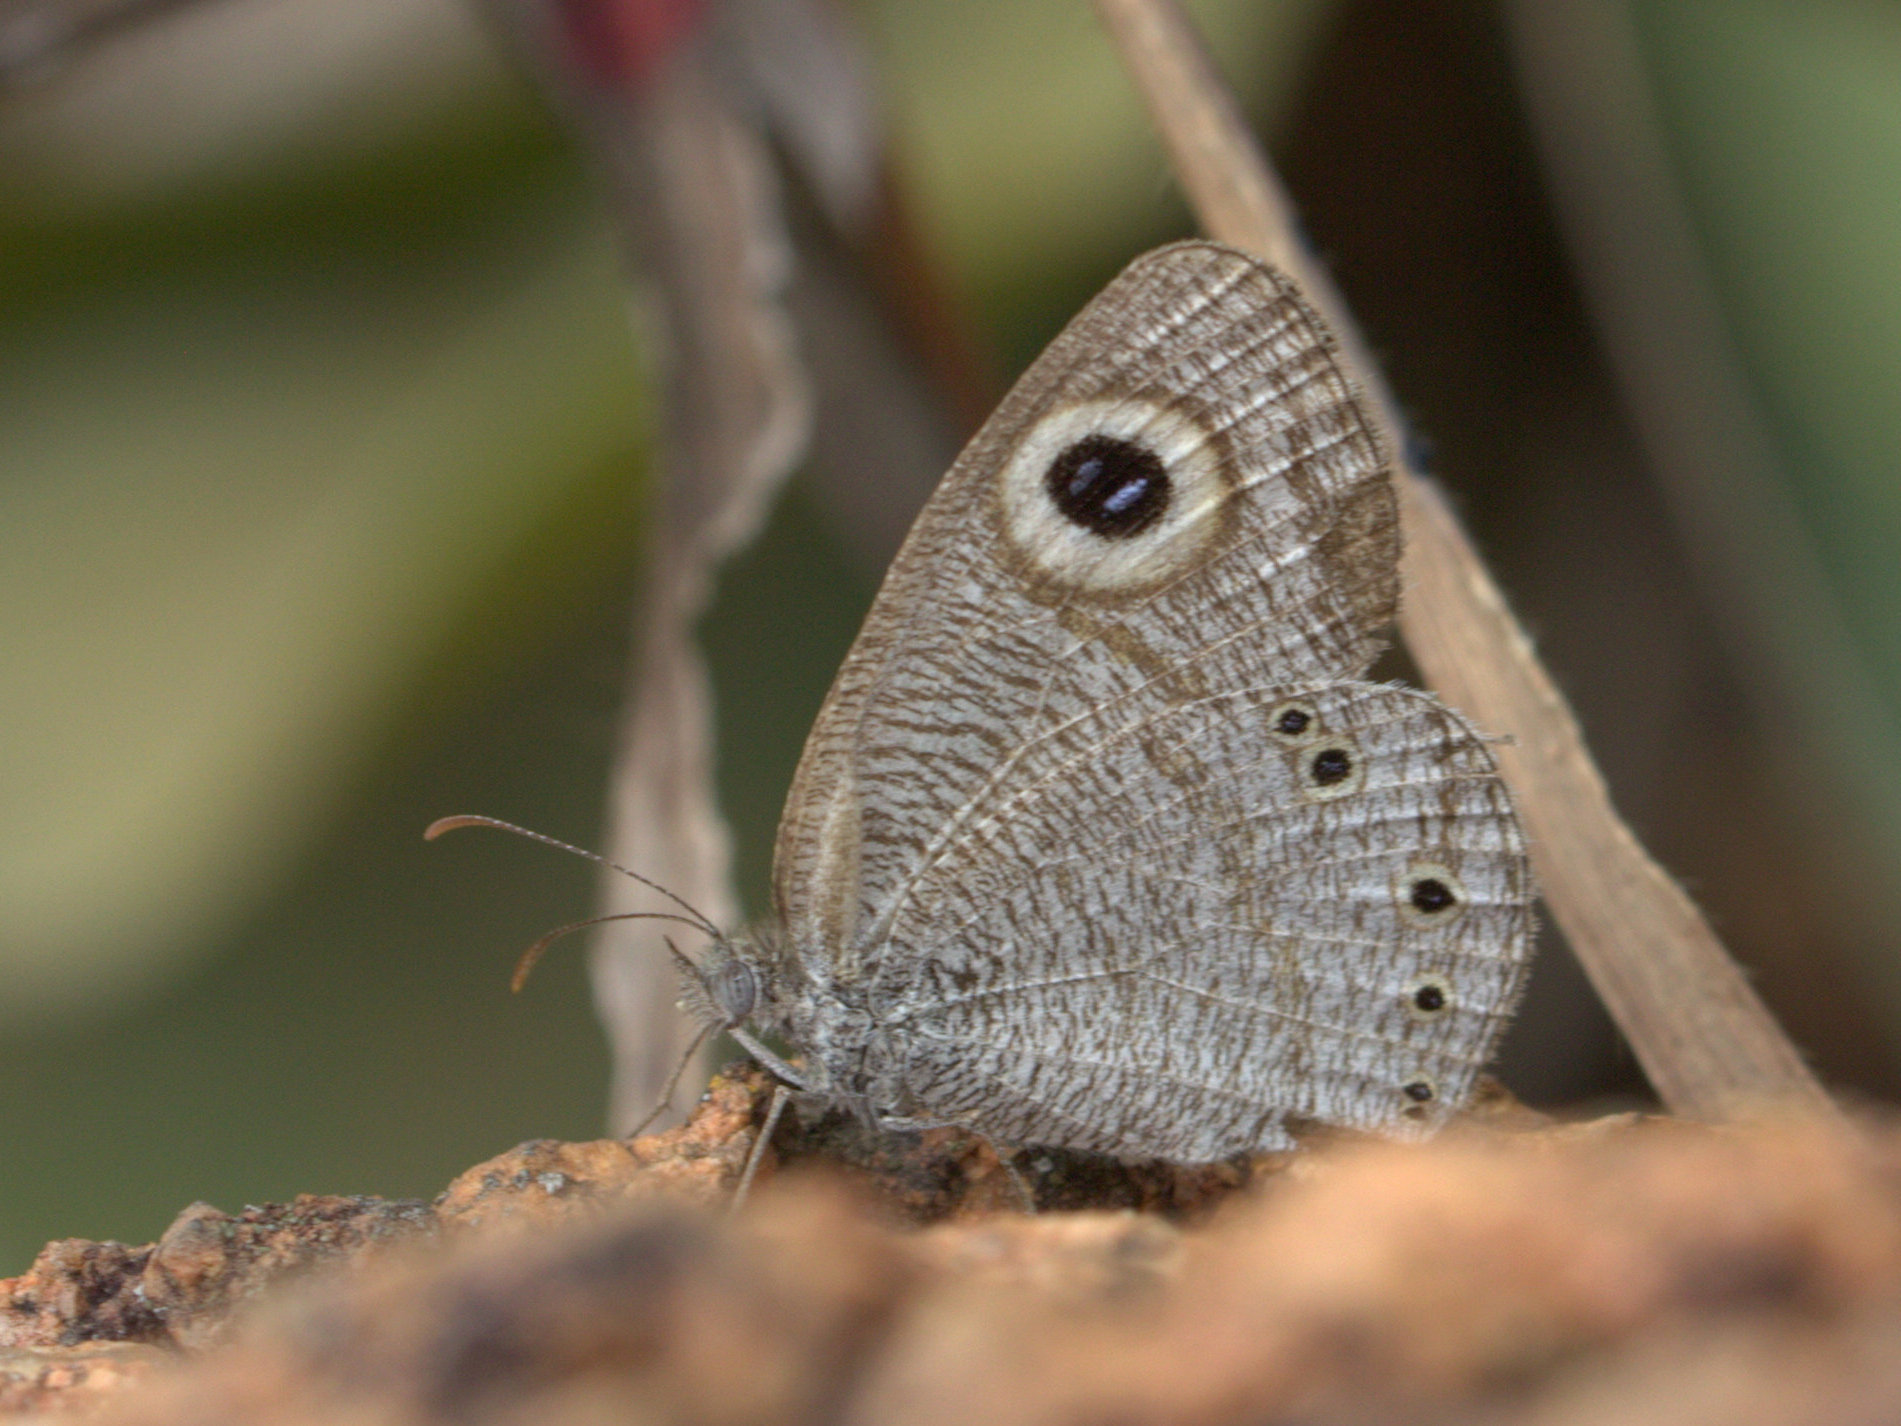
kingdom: Animalia
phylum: Arthropoda
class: Insecta
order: Lepidoptera
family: Nymphalidae
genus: Ypthima
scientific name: Ypthima avanta
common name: Jewel five-ring
